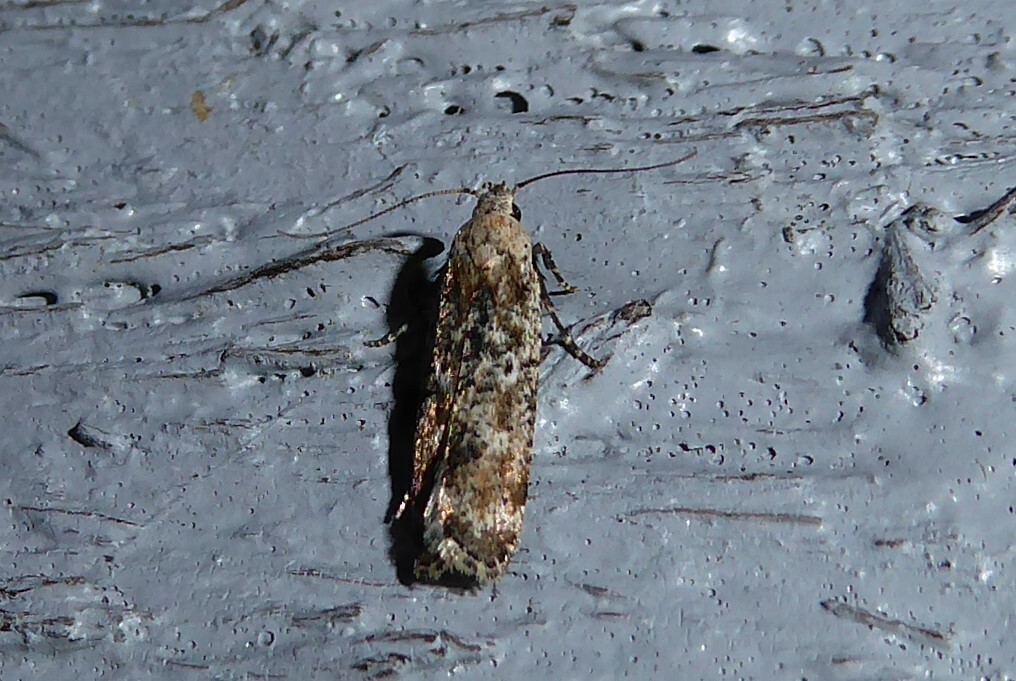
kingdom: Animalia
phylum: Arthropoda
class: Insecta
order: Lepidoptera
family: Gelechiidae
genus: Anisoplaca
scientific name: Anisoplaca achyrota
